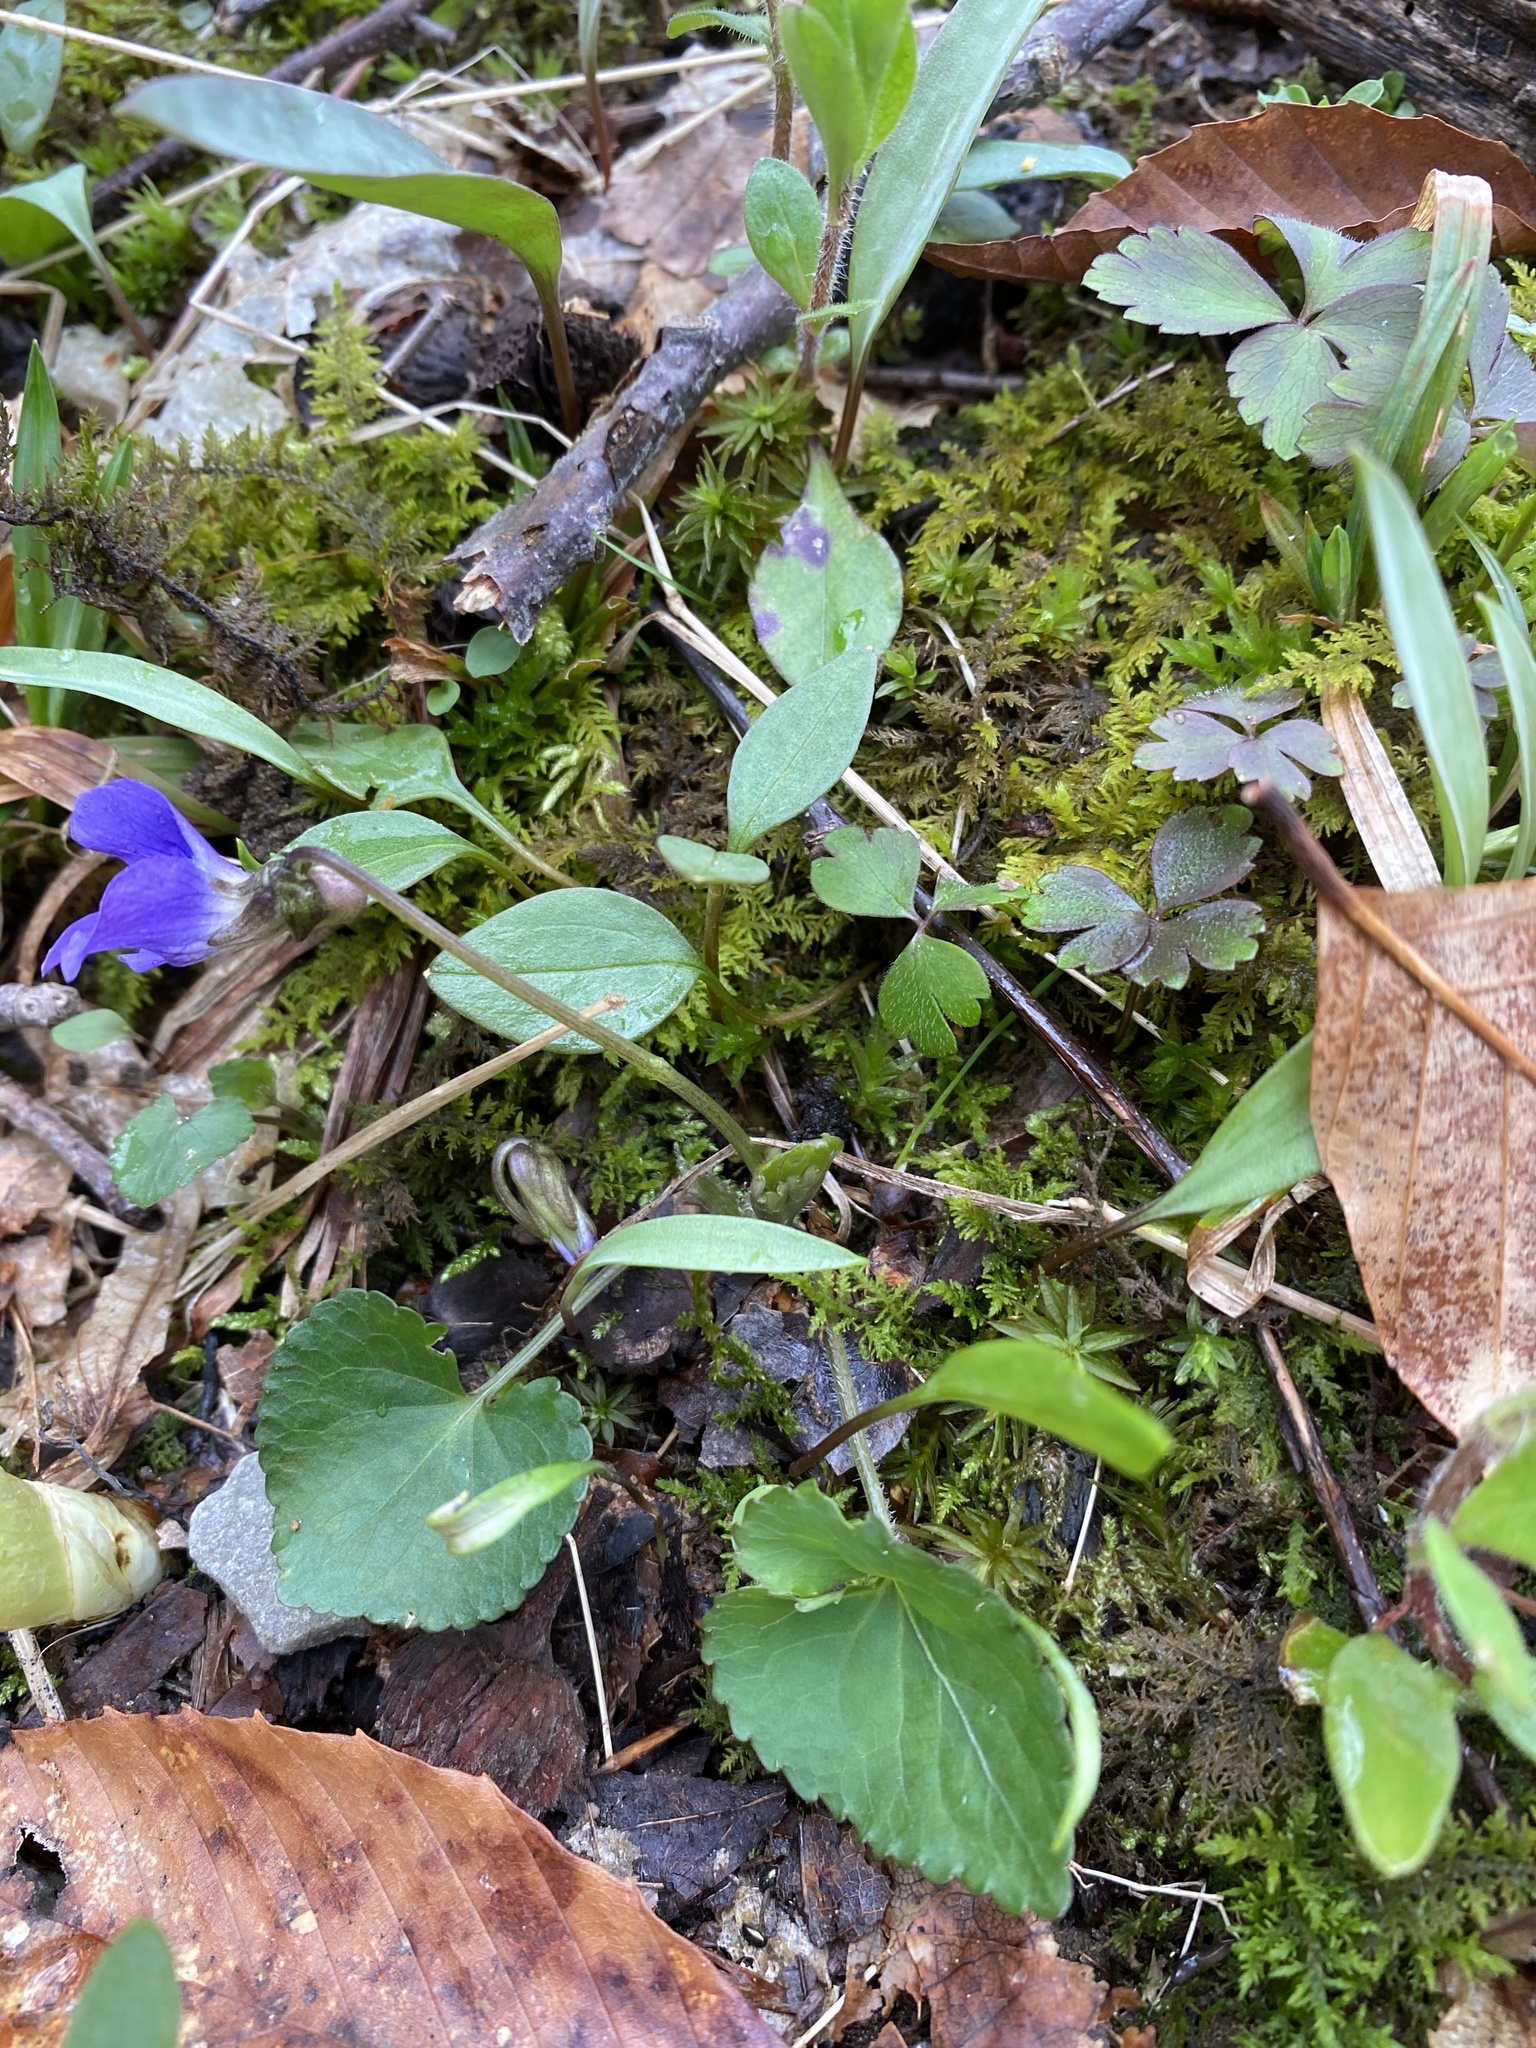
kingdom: Plantae
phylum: Tracheophyta
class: Magnoliopsida
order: Malpighiales
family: Violaceae
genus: Viola
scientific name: Viola sororia
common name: Dooryard violet
